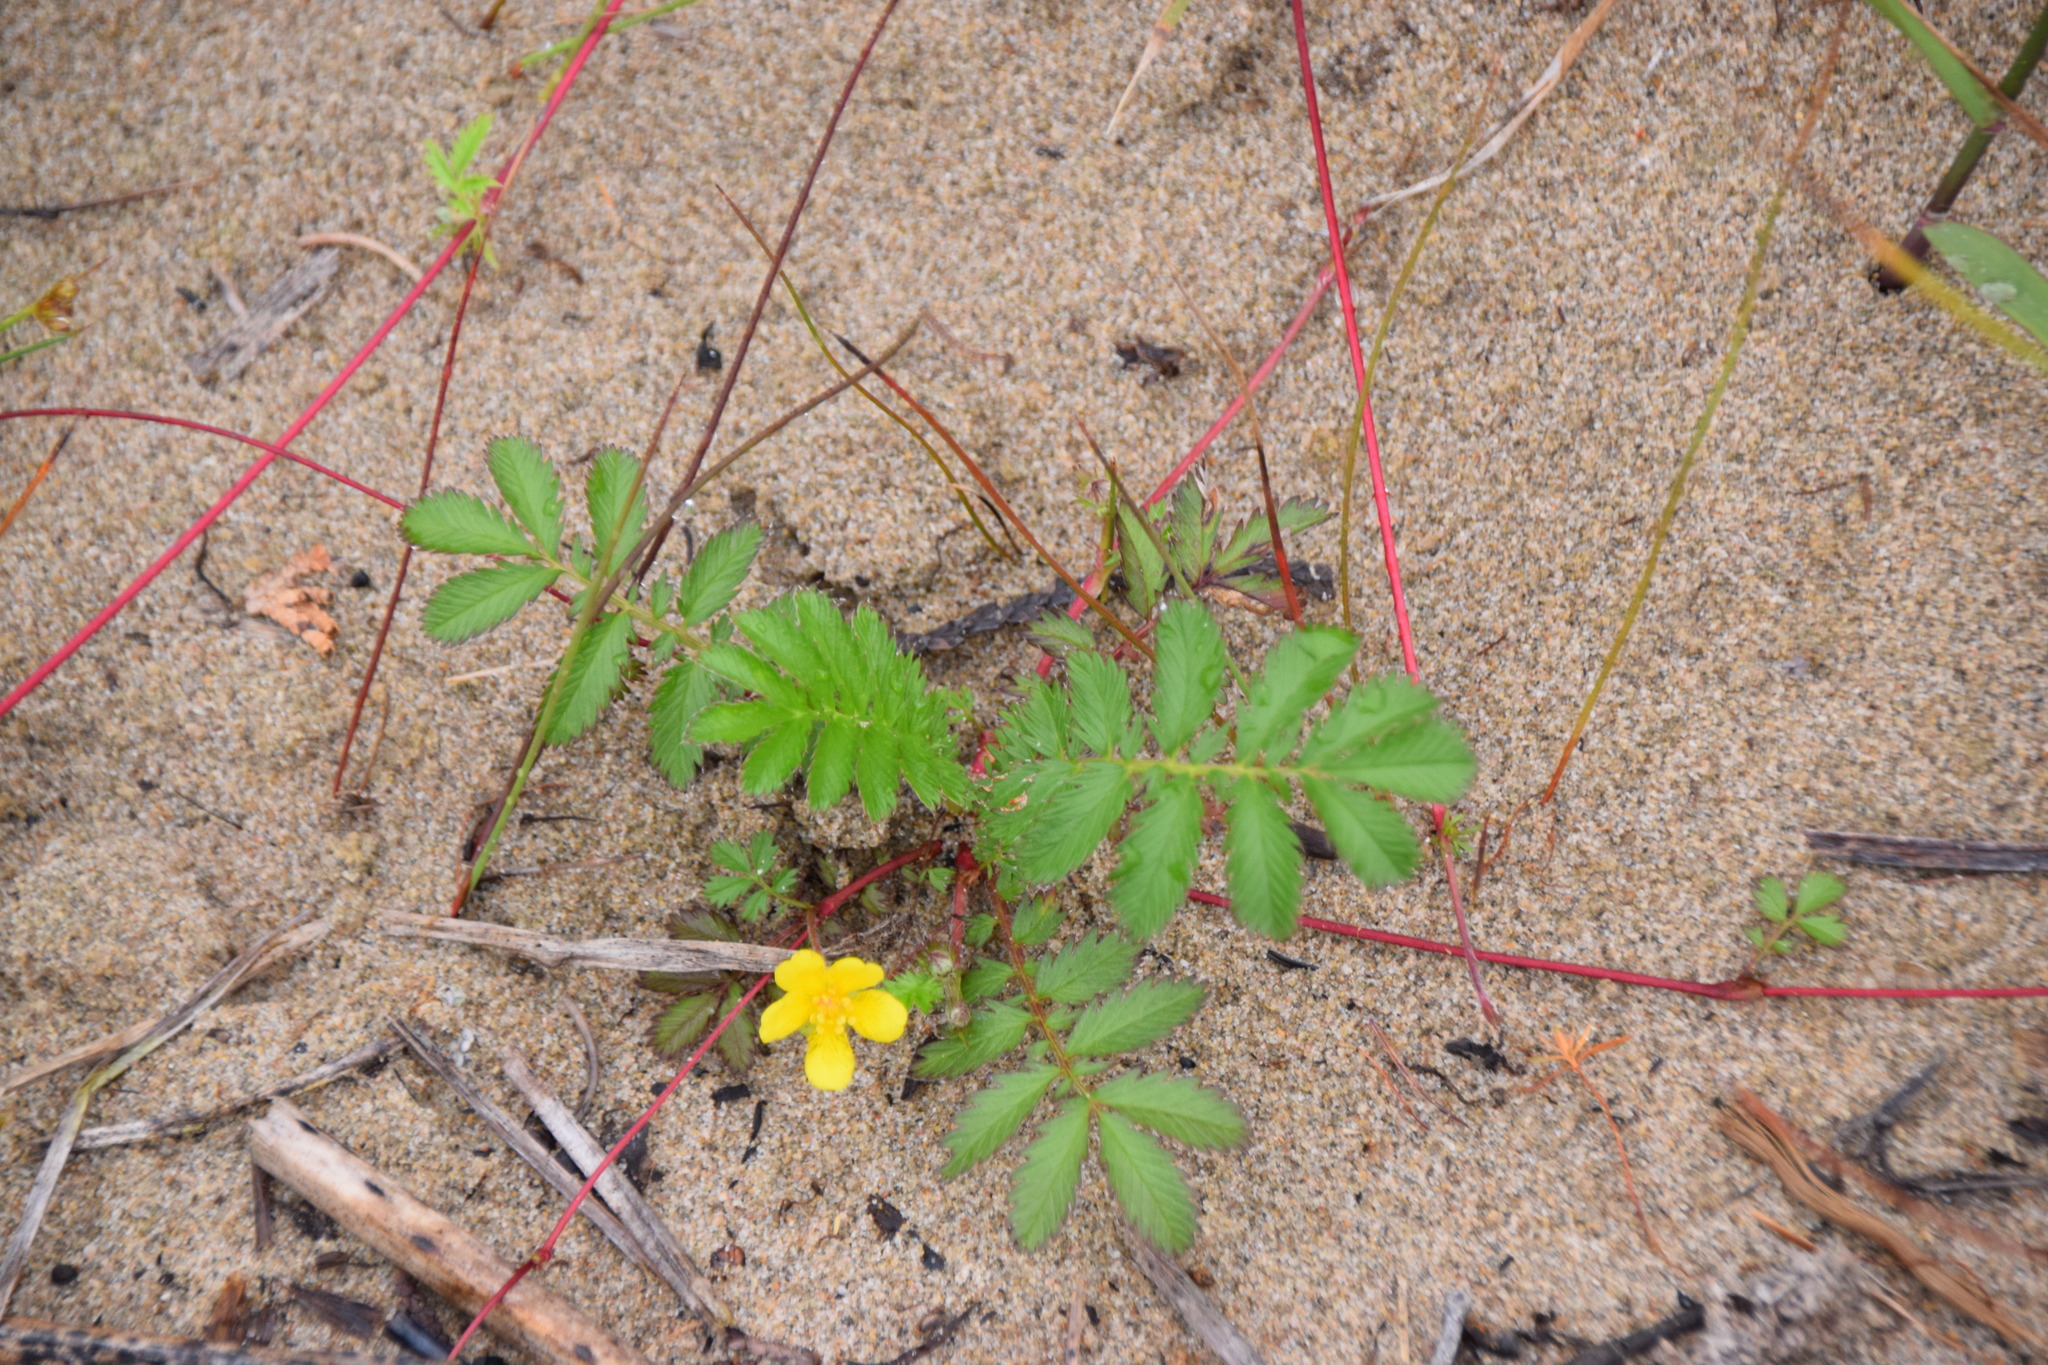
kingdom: Plantae
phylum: Tracheophyta
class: Magnoliopsida
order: Rosales
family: Rosaceae
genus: Argentina
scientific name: Argentina anserina
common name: Common silverweed
